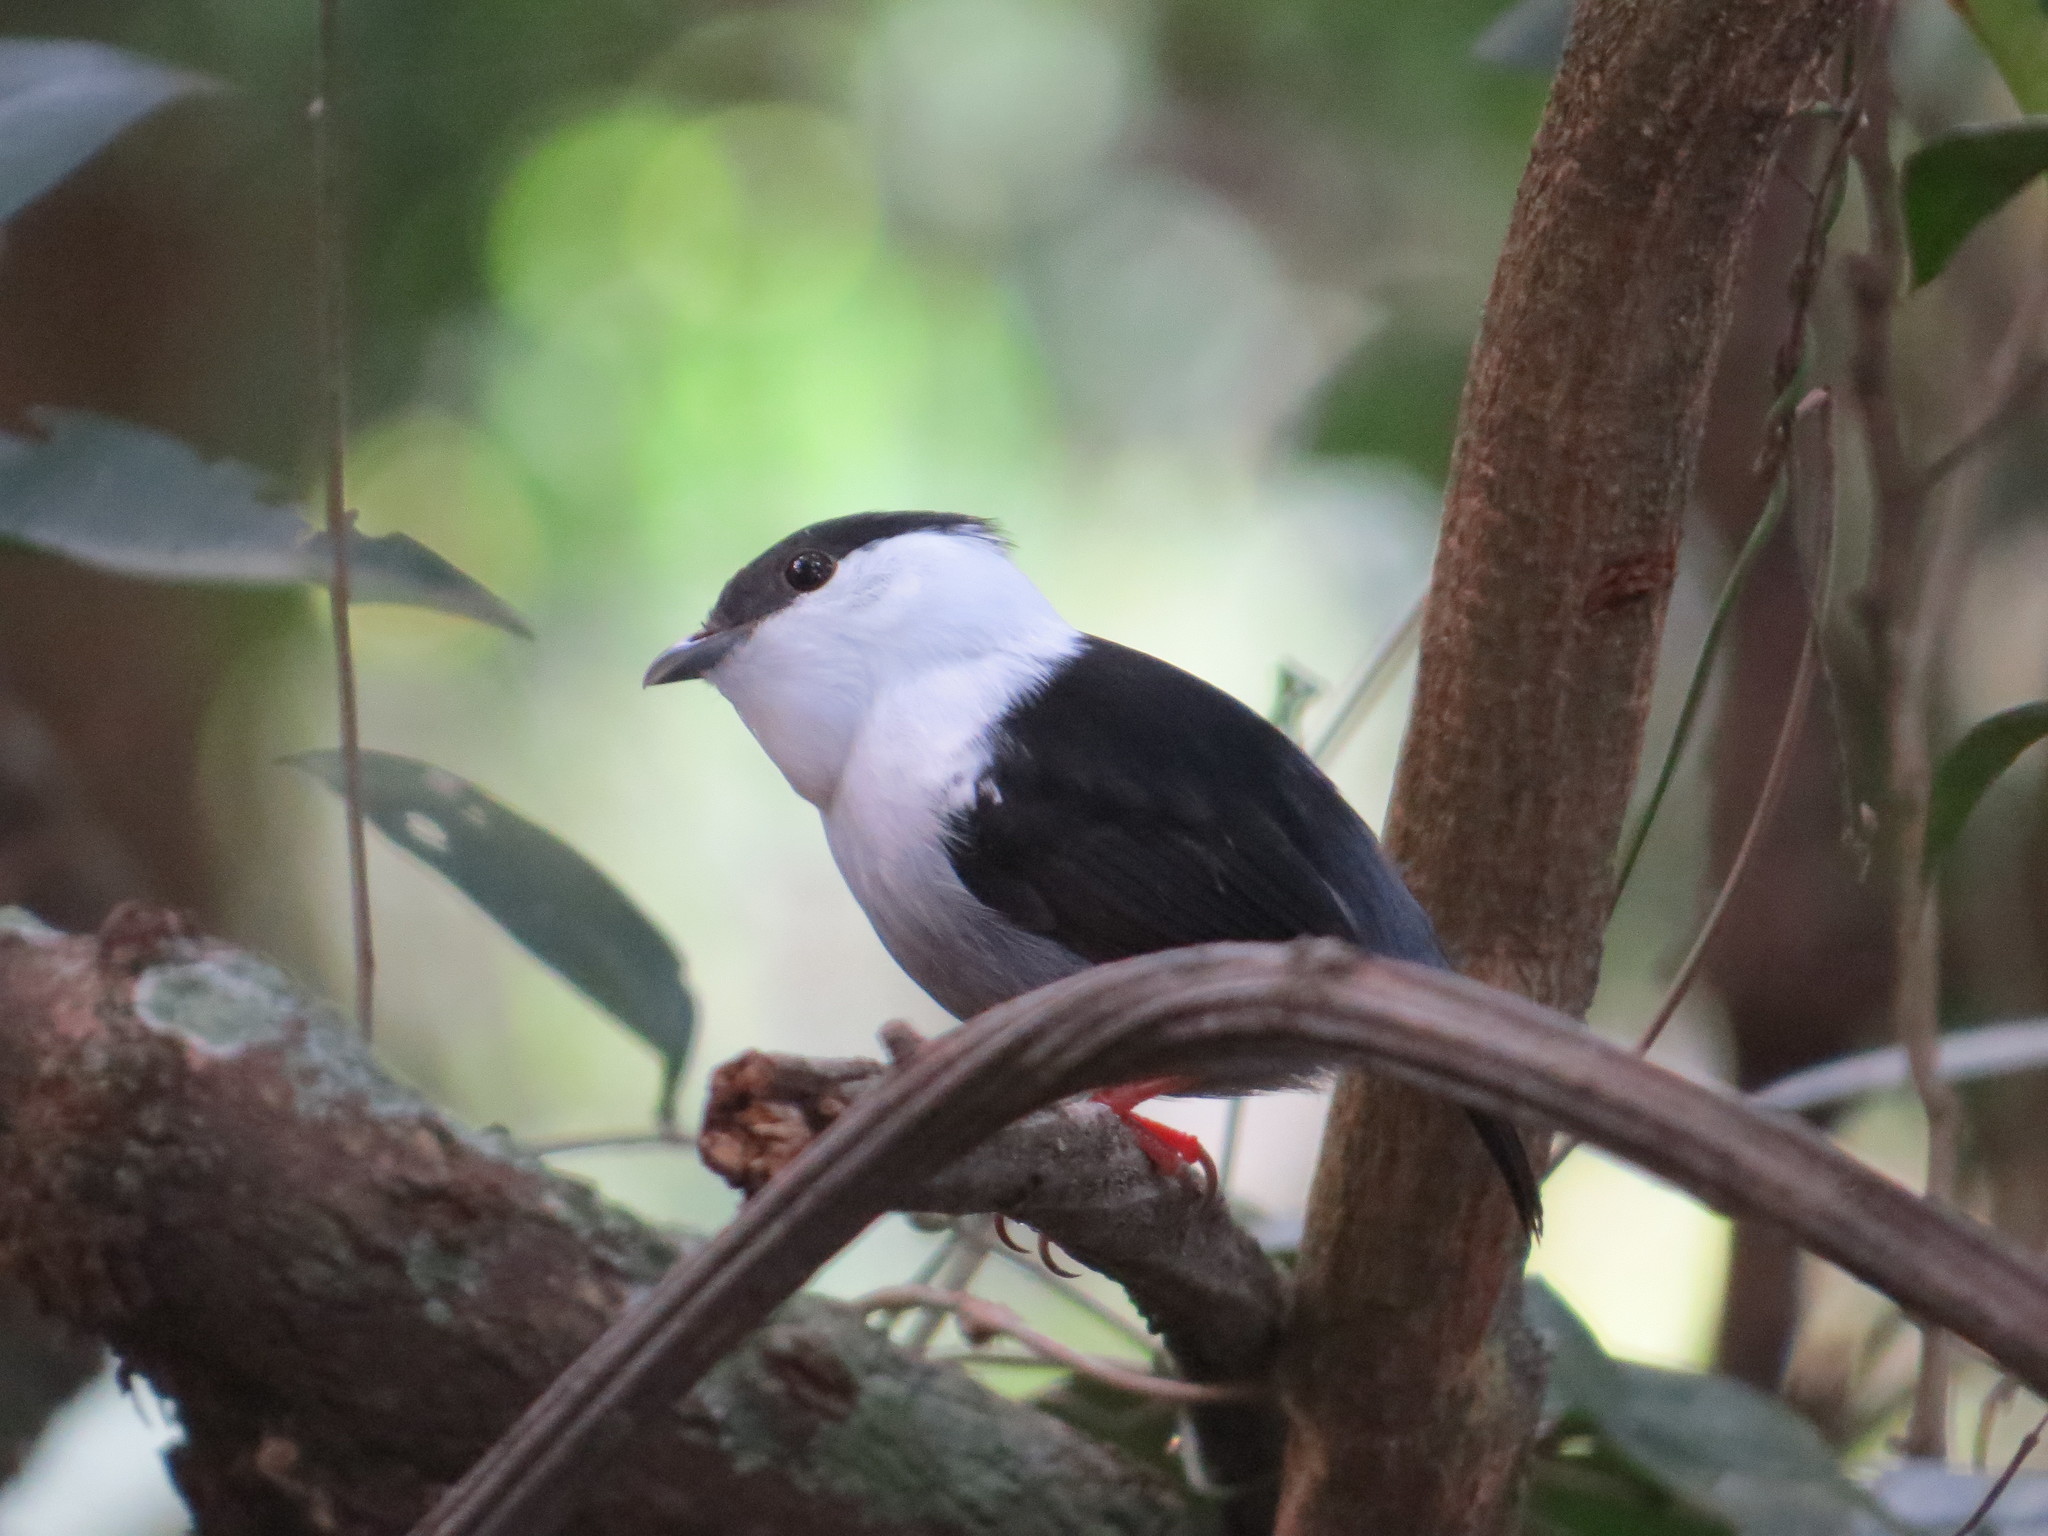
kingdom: Animalia
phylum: Chordata
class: Aves
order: Passeriformes
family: Pipridae
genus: Manacus
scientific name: Manacus manacus
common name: White-bearded manakin
